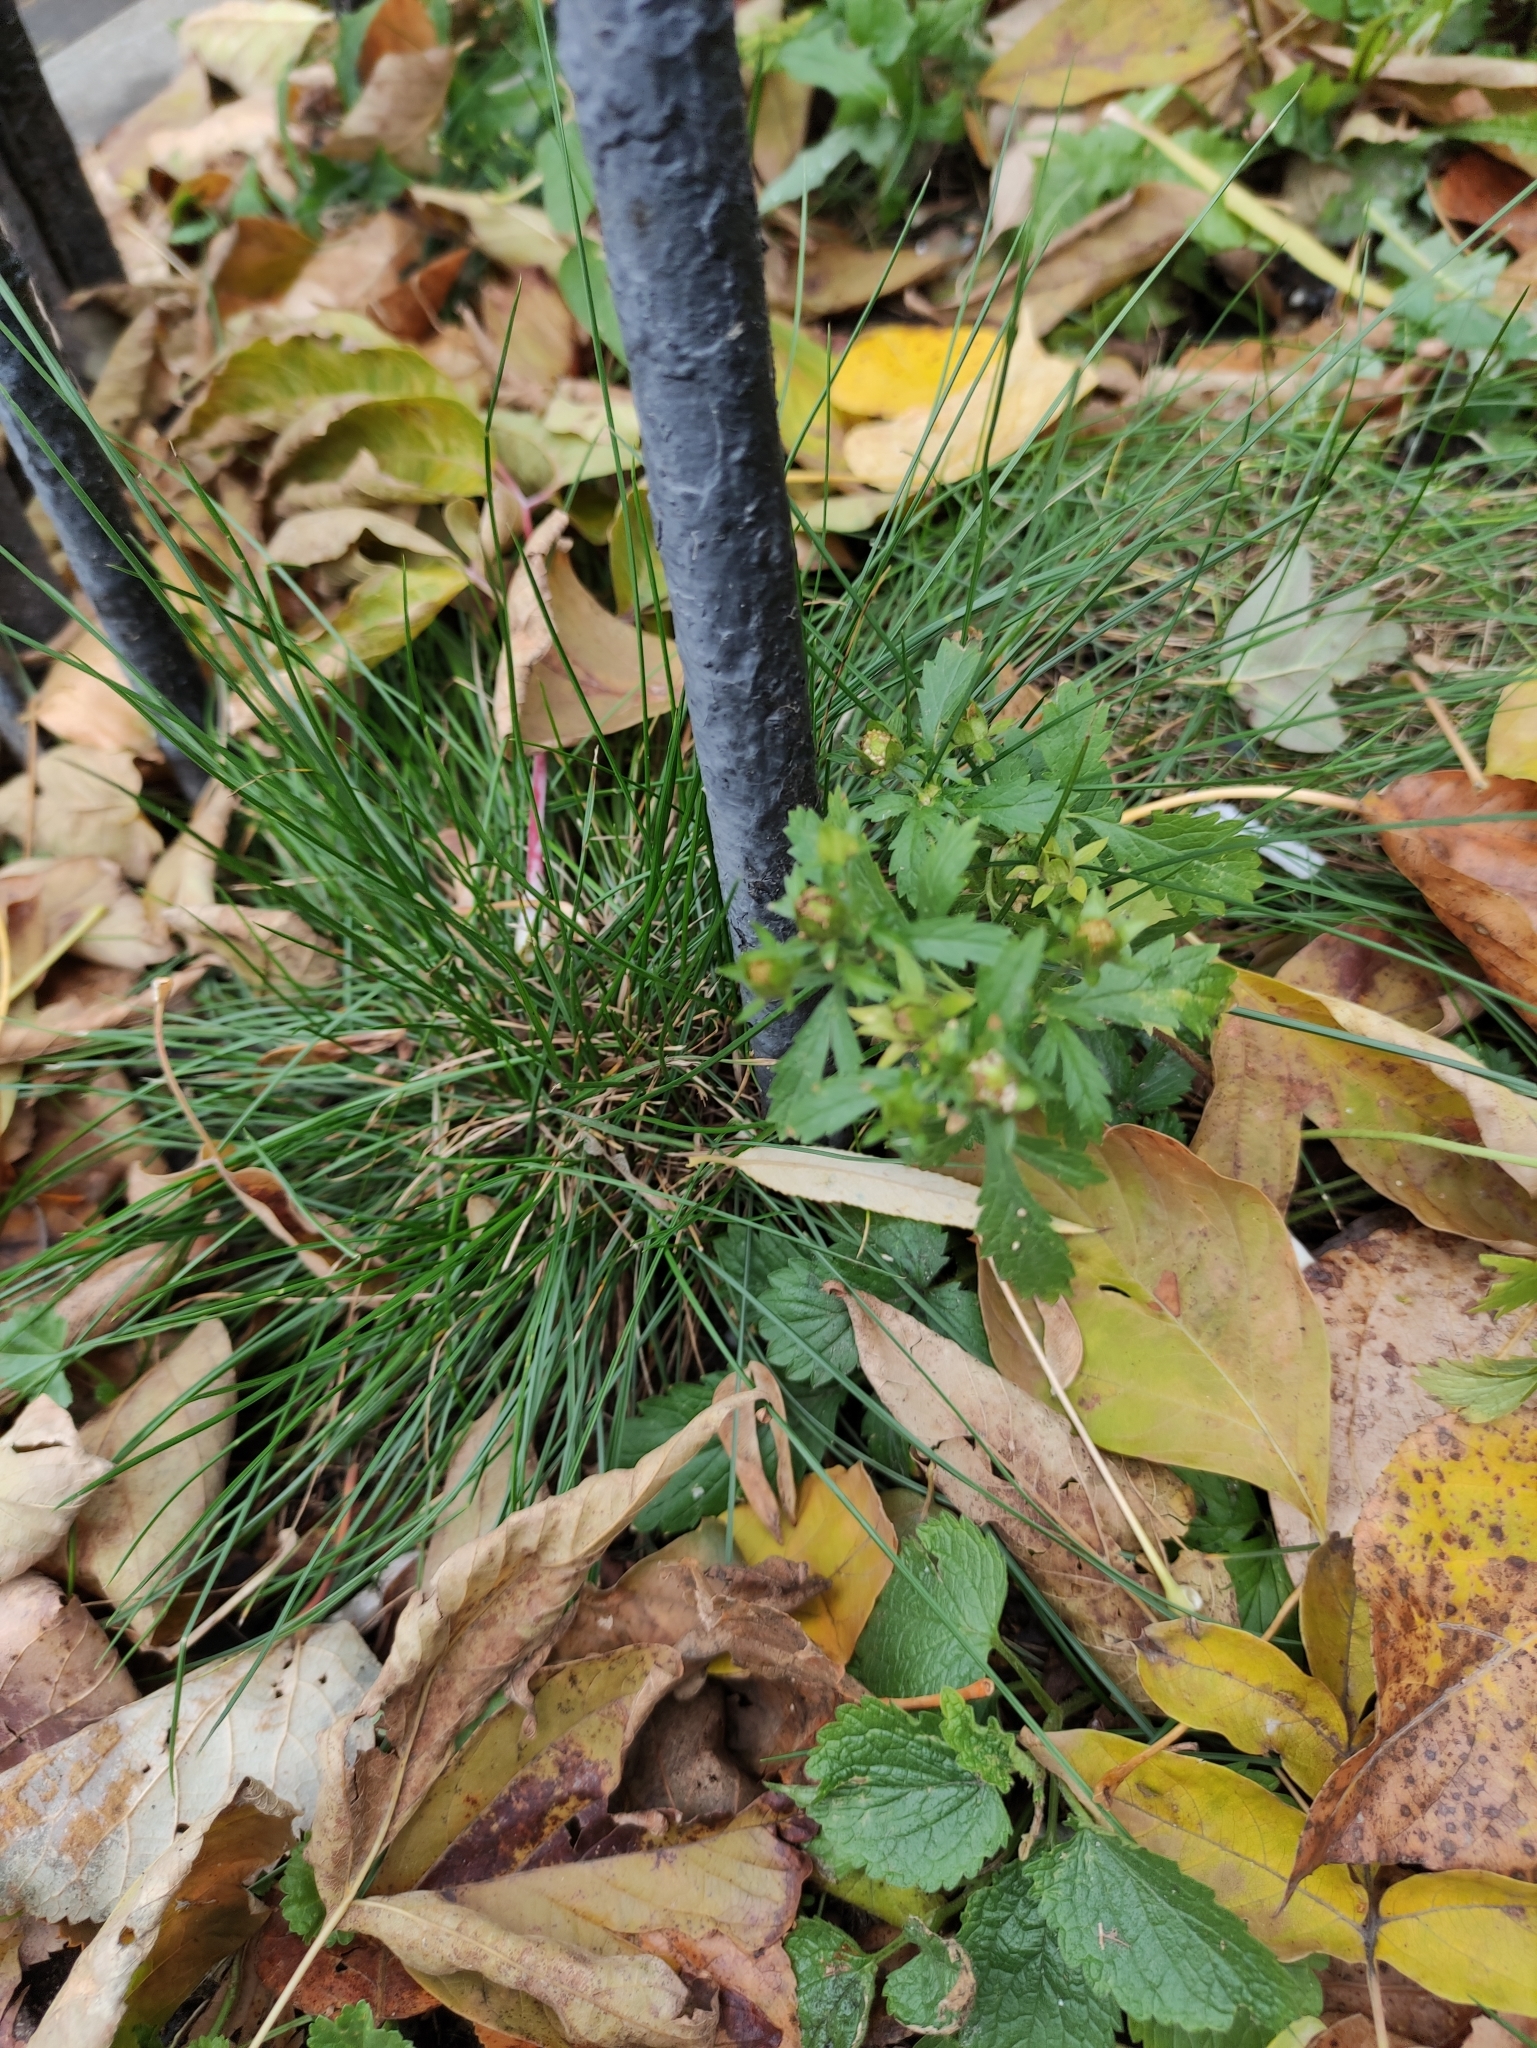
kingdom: Plantae
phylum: Tracheophyta
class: Magnoliopsida
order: Rosales
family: Rosaceae
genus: Potentilla
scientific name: Potentilla norvegica
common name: Ternate-leaved cinquefoil
